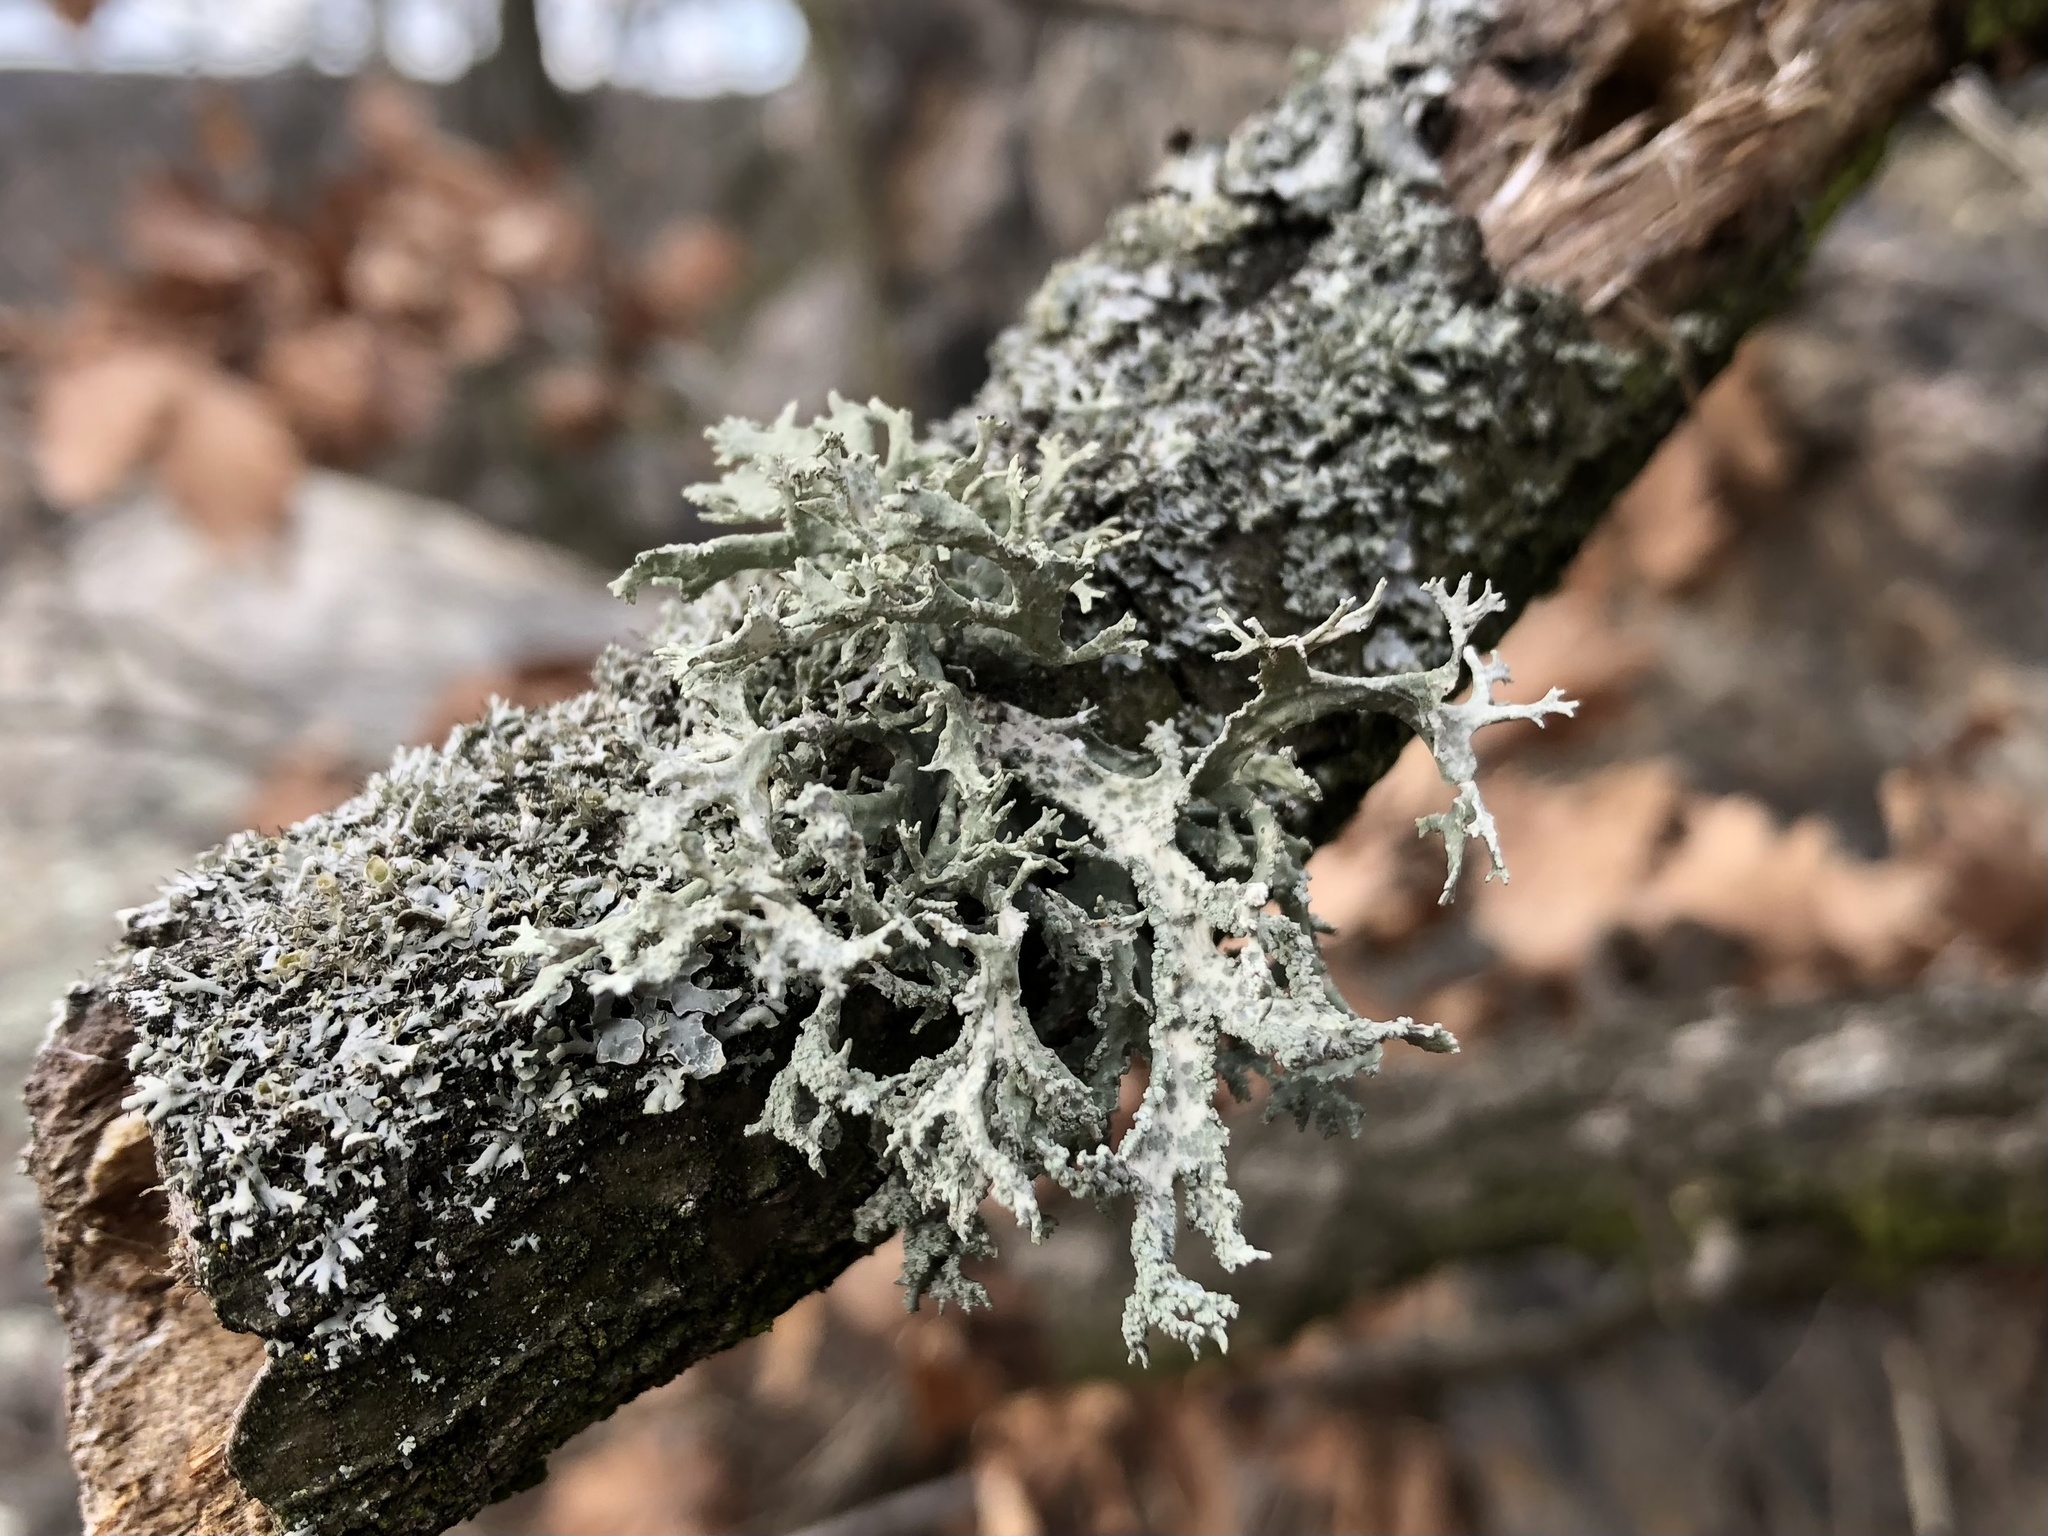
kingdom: Fungi
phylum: Ascomycota
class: Lecanoromycetes
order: Lecanorales
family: Parmeliaceae
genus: Evernia
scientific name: Evernia prunastri
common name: Oak moss
